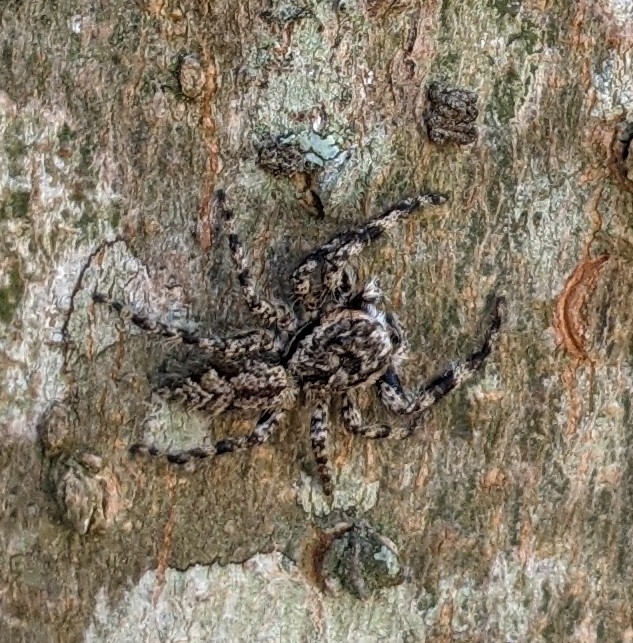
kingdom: Animalia
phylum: Arthropoda
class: Arachnida
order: Araneae
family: Salticidae
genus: Platycryptus
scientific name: Platycryptus undatus
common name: Tan jumping spider
